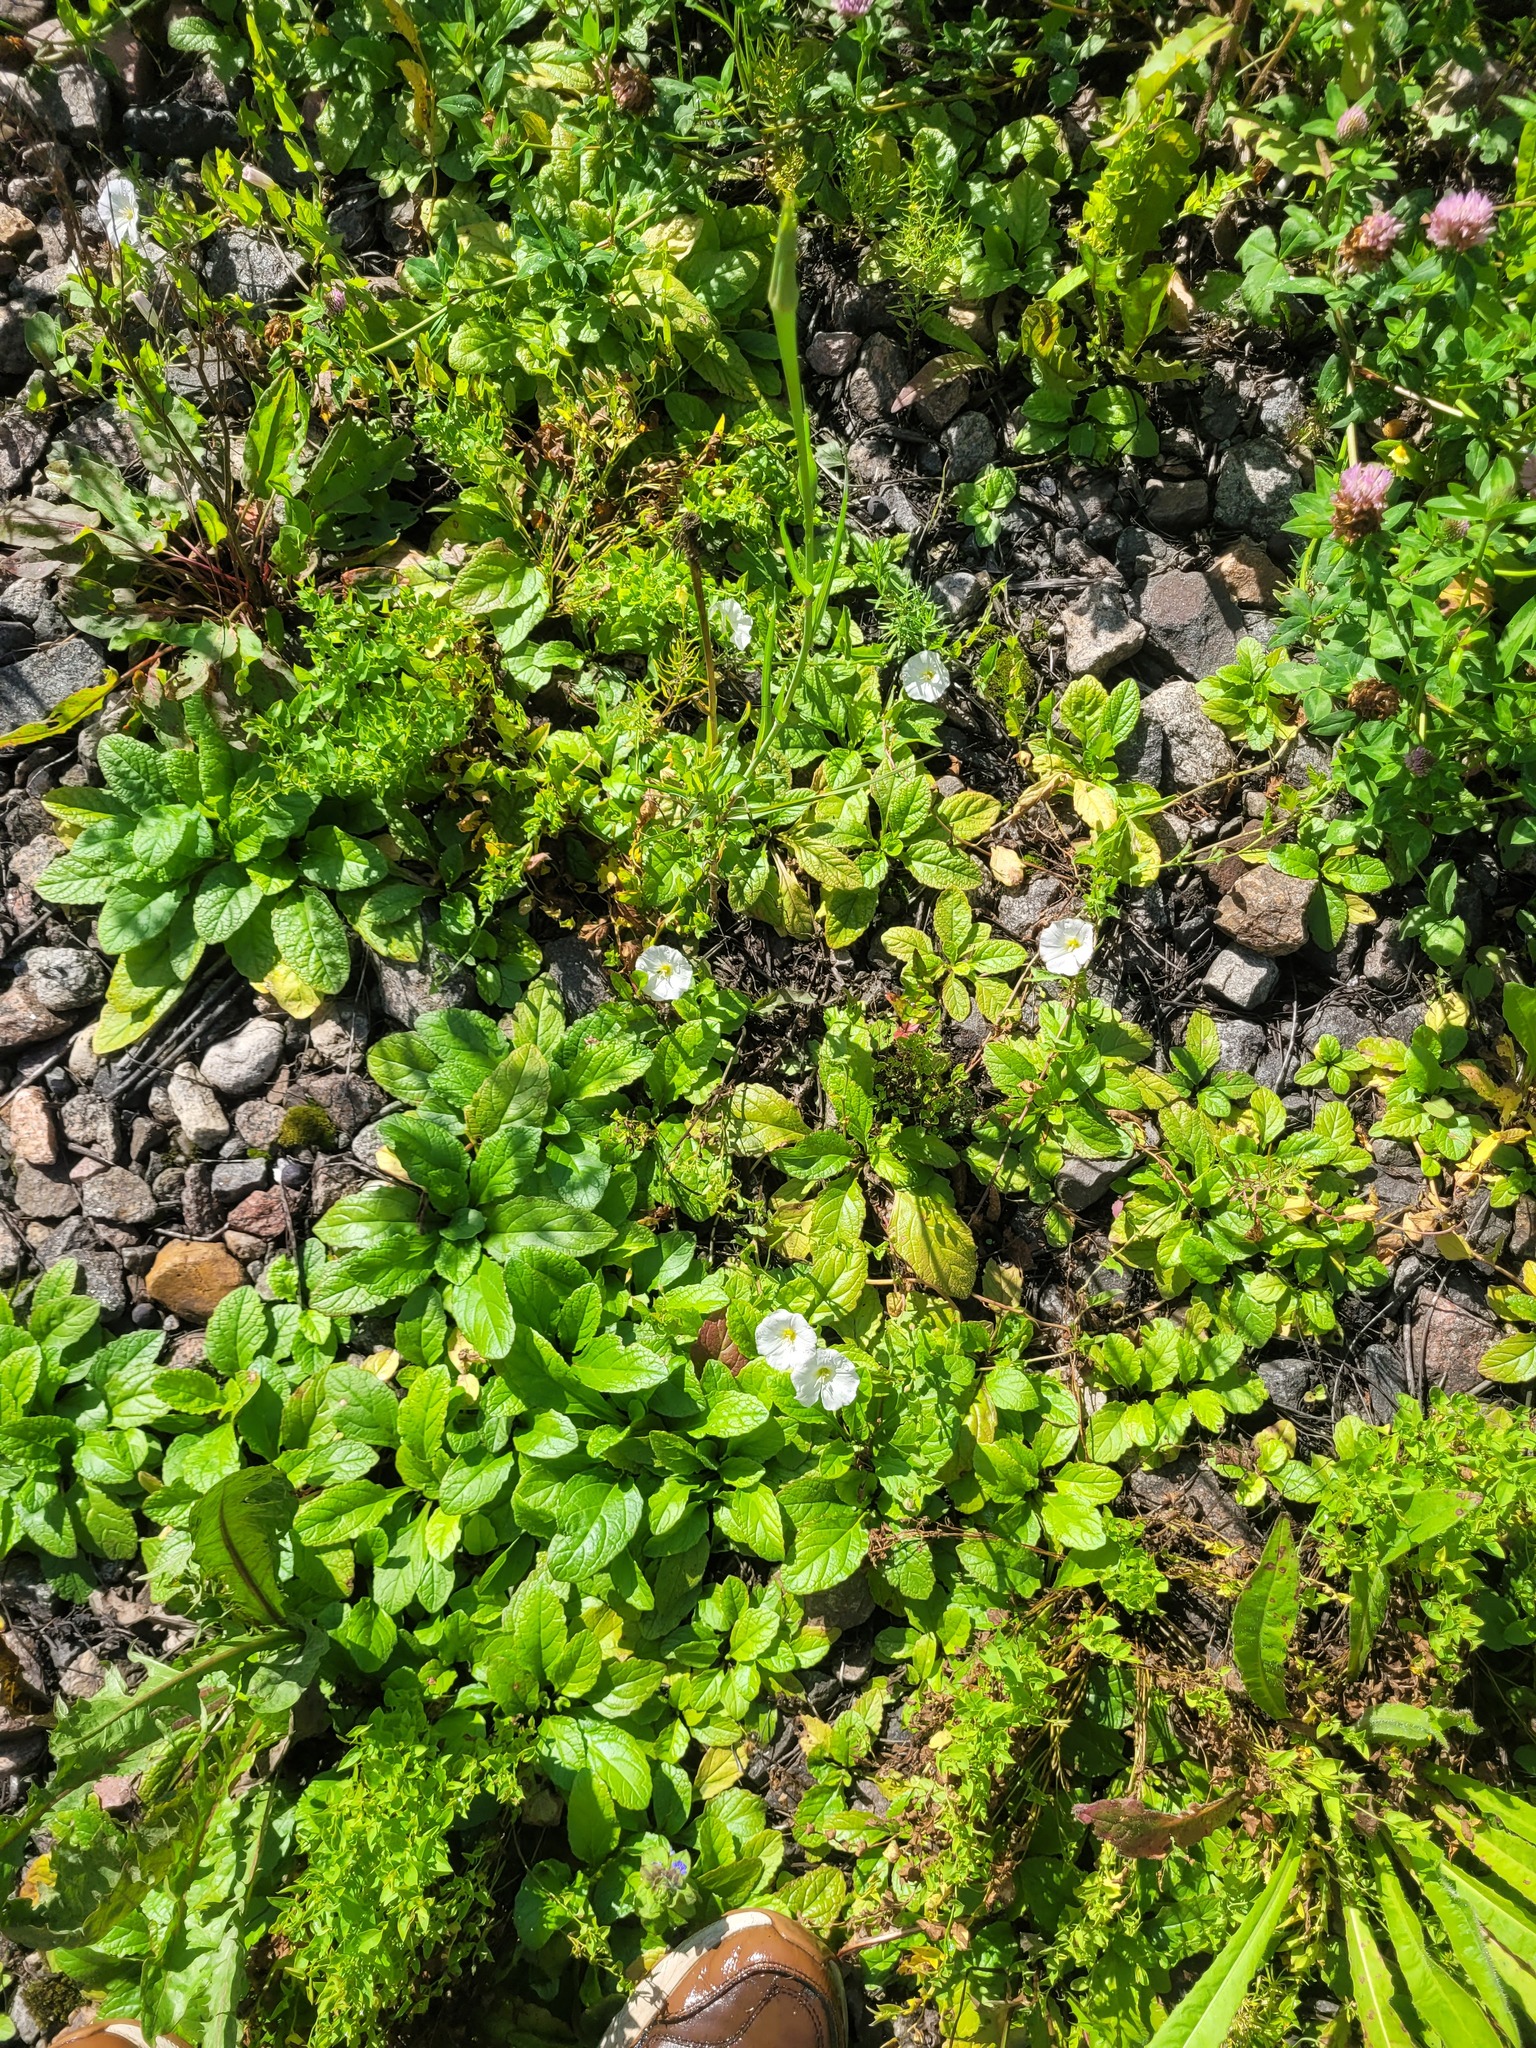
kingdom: Plantae
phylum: Tracheophyta
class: Magnoliopsida
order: Solanales
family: Convolvulaceae
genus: Convolvulus
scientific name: Convolvulus arvensis
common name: Field bindweed
